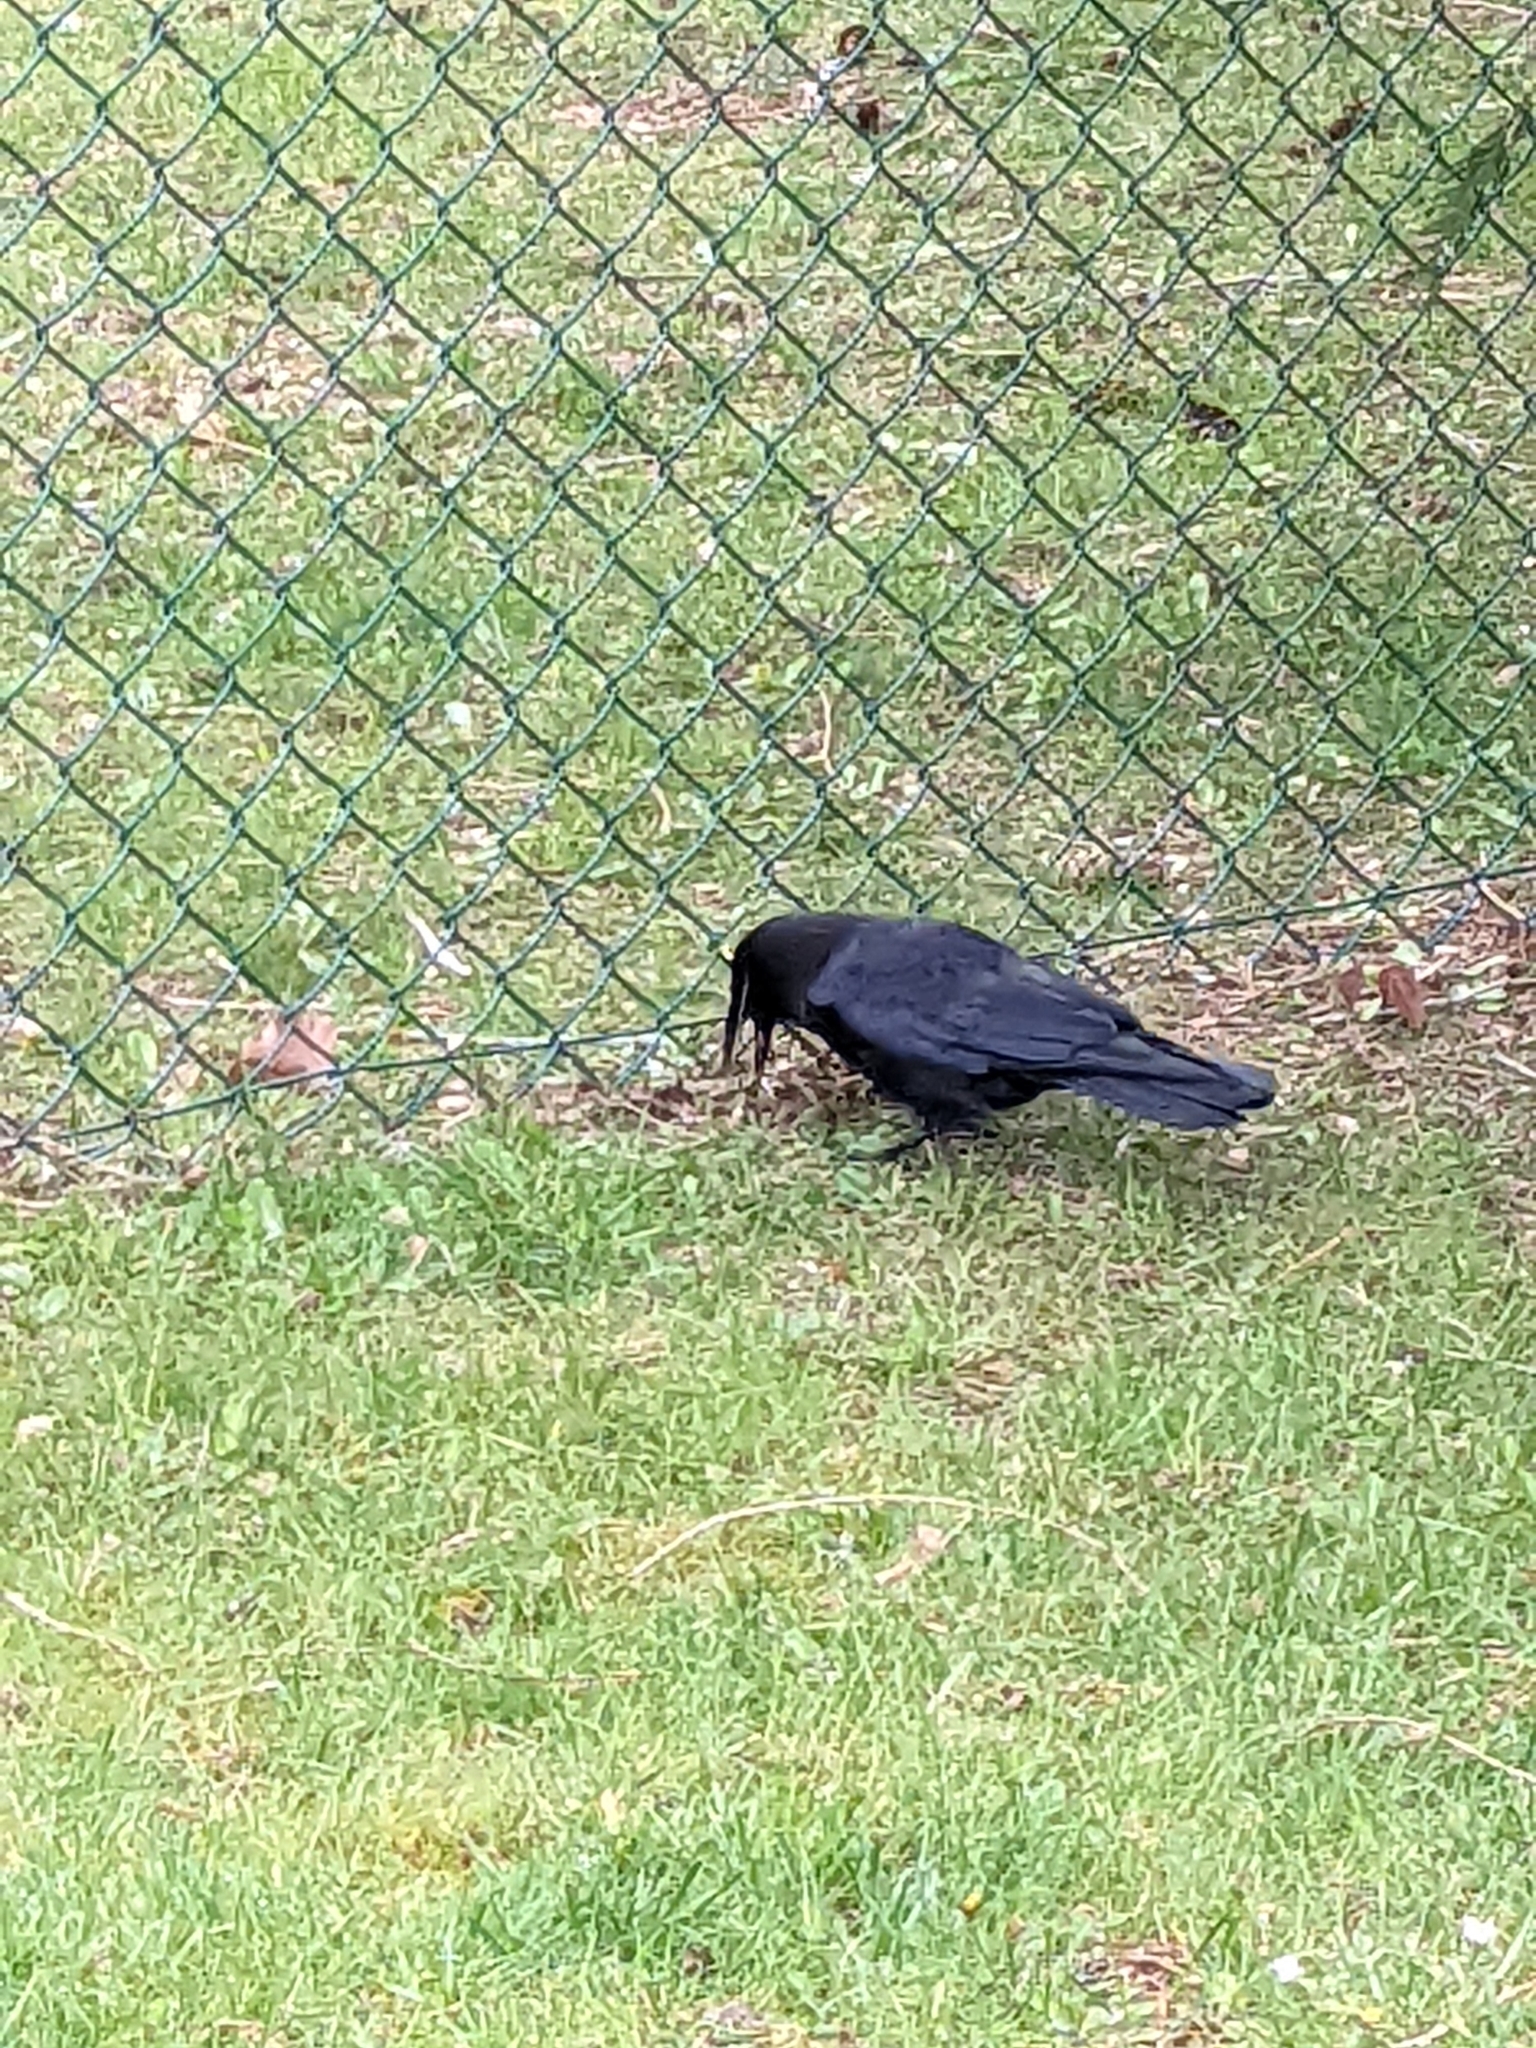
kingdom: Animalia
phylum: Chordata
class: Aves
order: Passeriformes
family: Corvidae
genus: Corvus
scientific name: Corvus brachyrhynchos
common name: American crow
